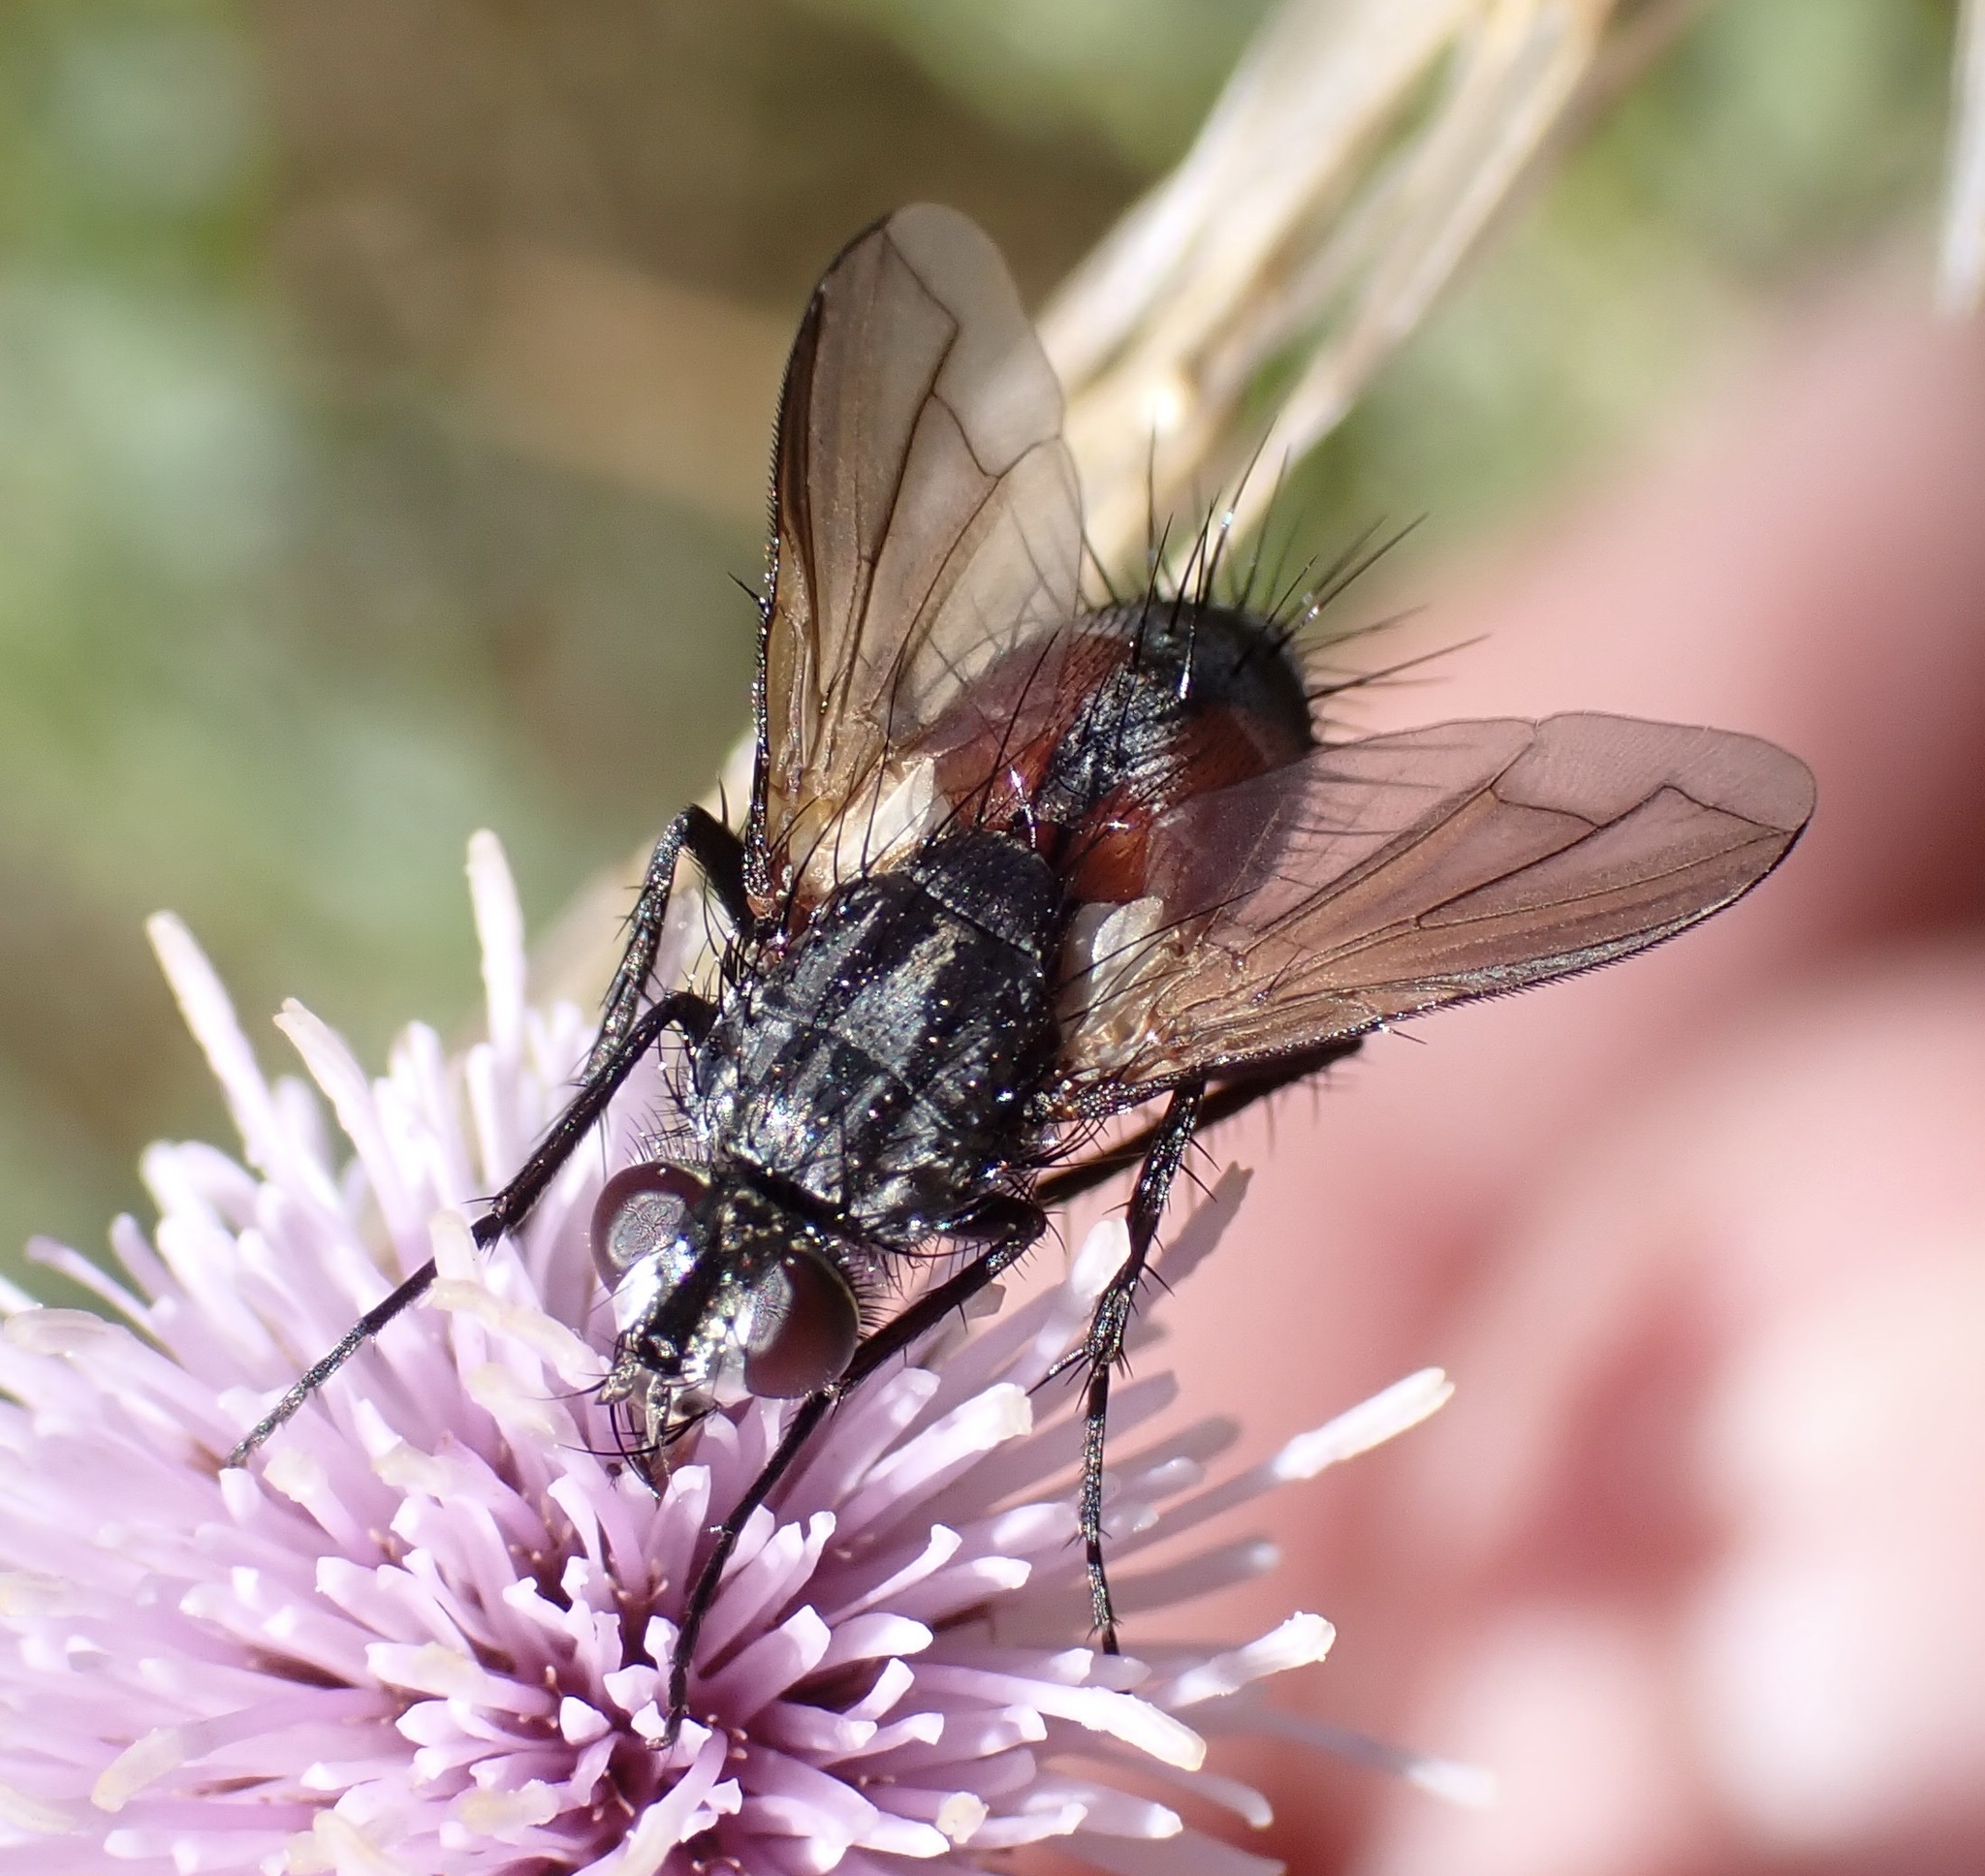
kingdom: Animalia
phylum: Arthropoda
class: Insecta
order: Diptera
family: Tachinidae
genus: Eriothrix
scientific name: Eriothrix rufomaculatus
